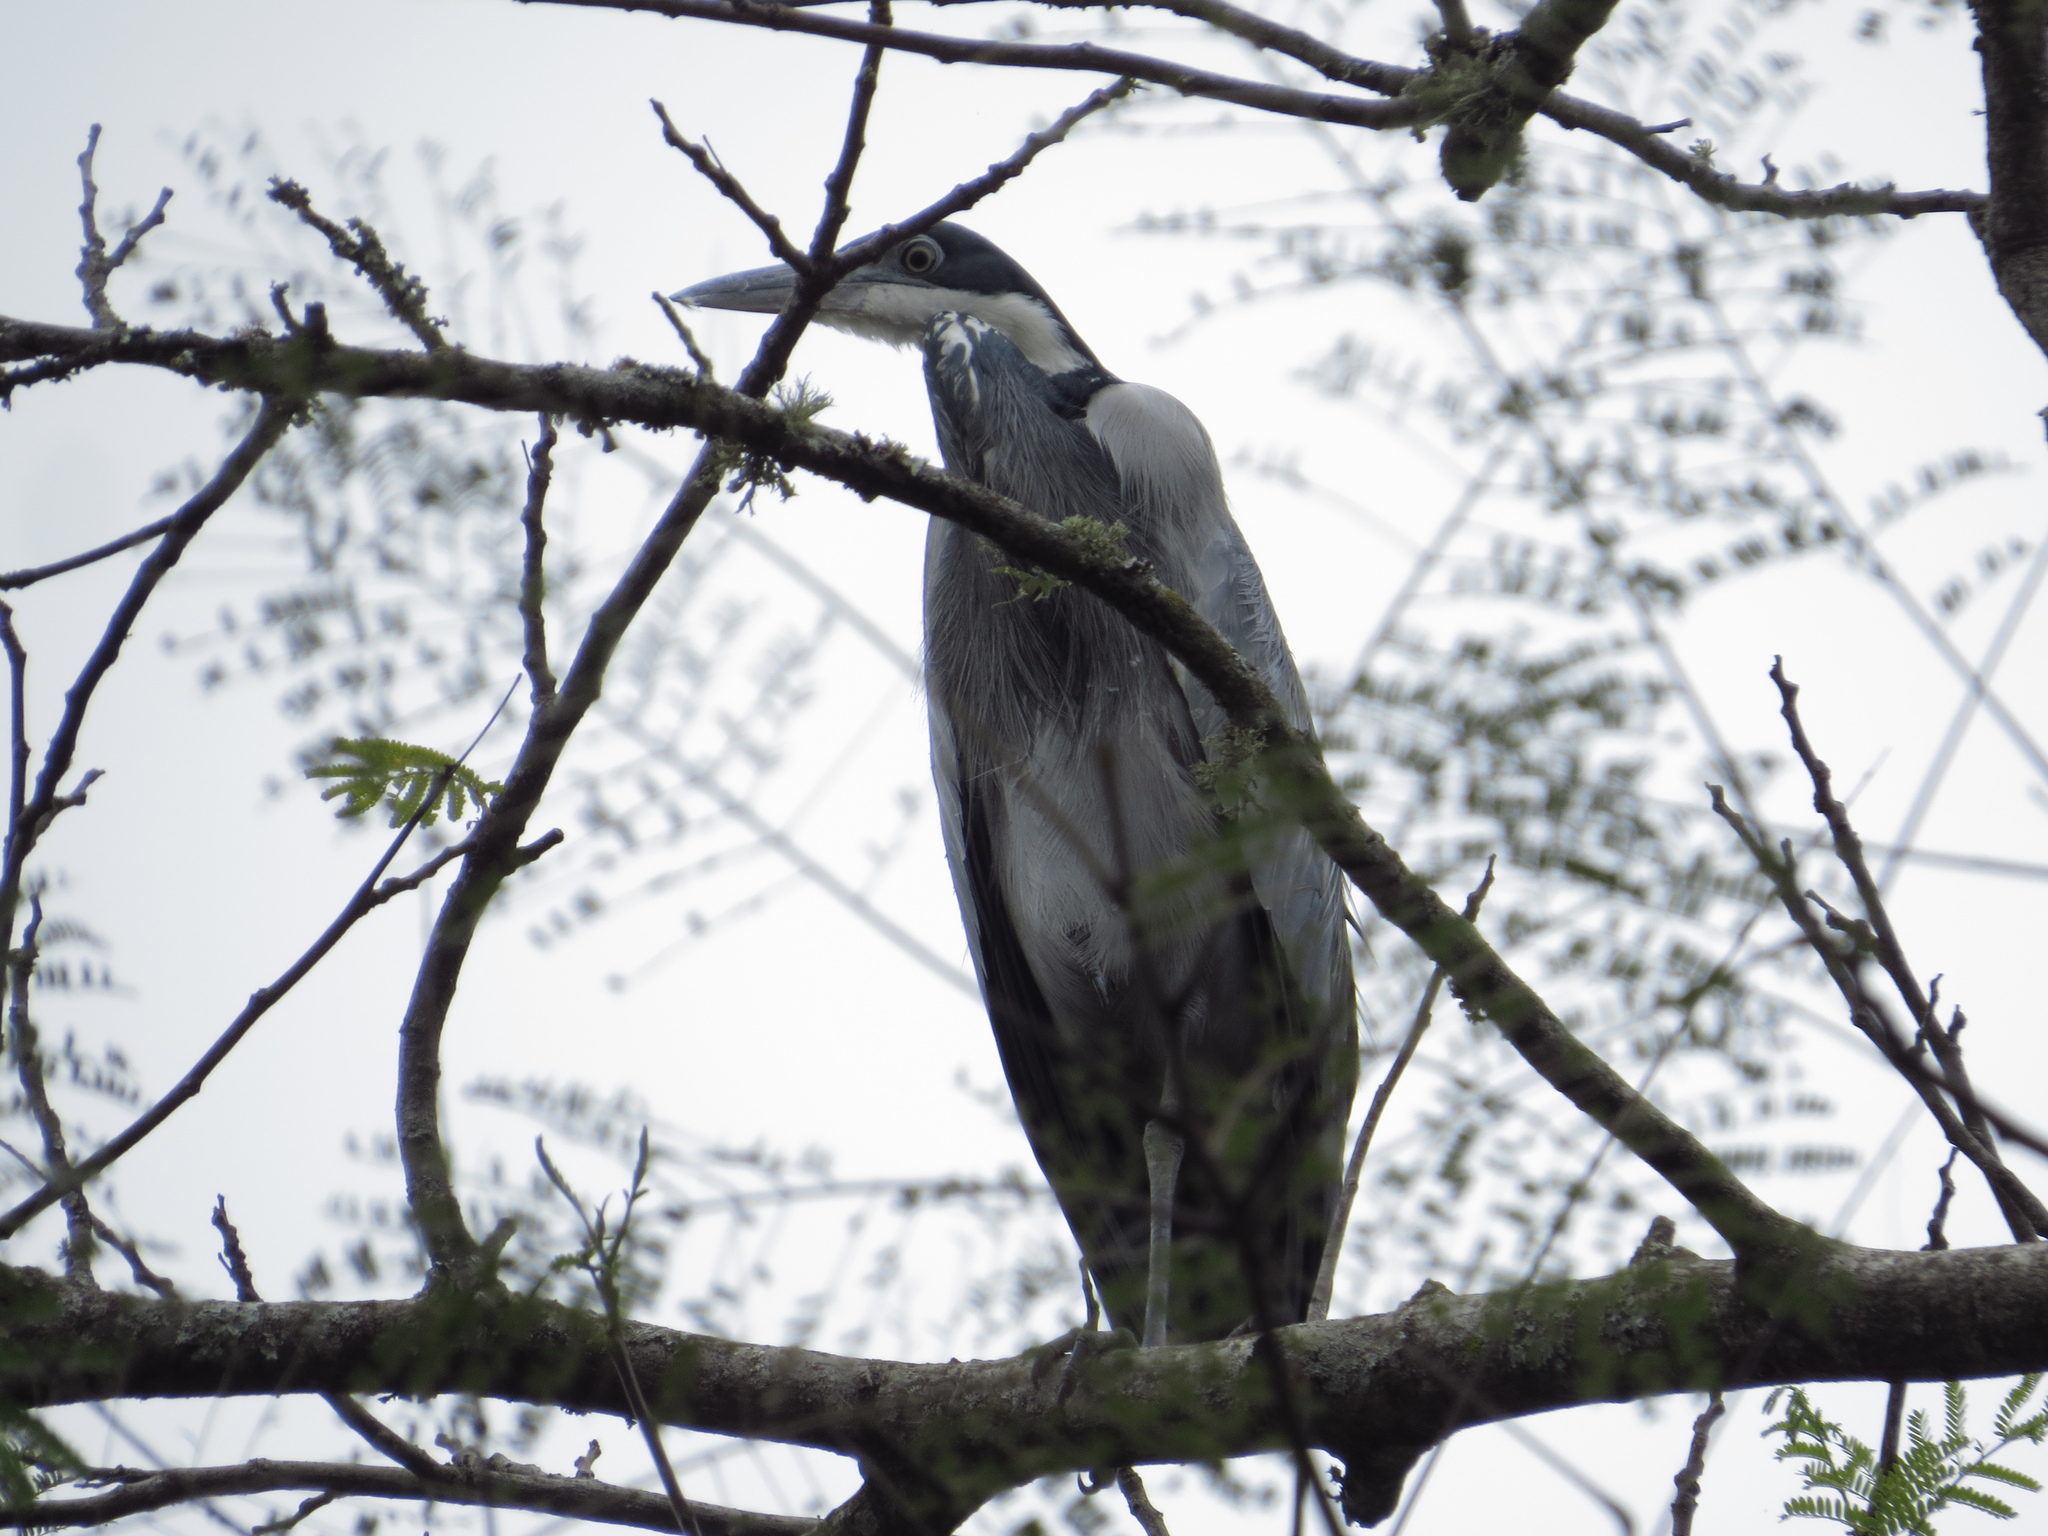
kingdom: Animalia
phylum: Chordata
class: Aves
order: Pelecaniformes
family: Ardeidae
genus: Ardea
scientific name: Ardea melanocephala
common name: Black-headed heron
